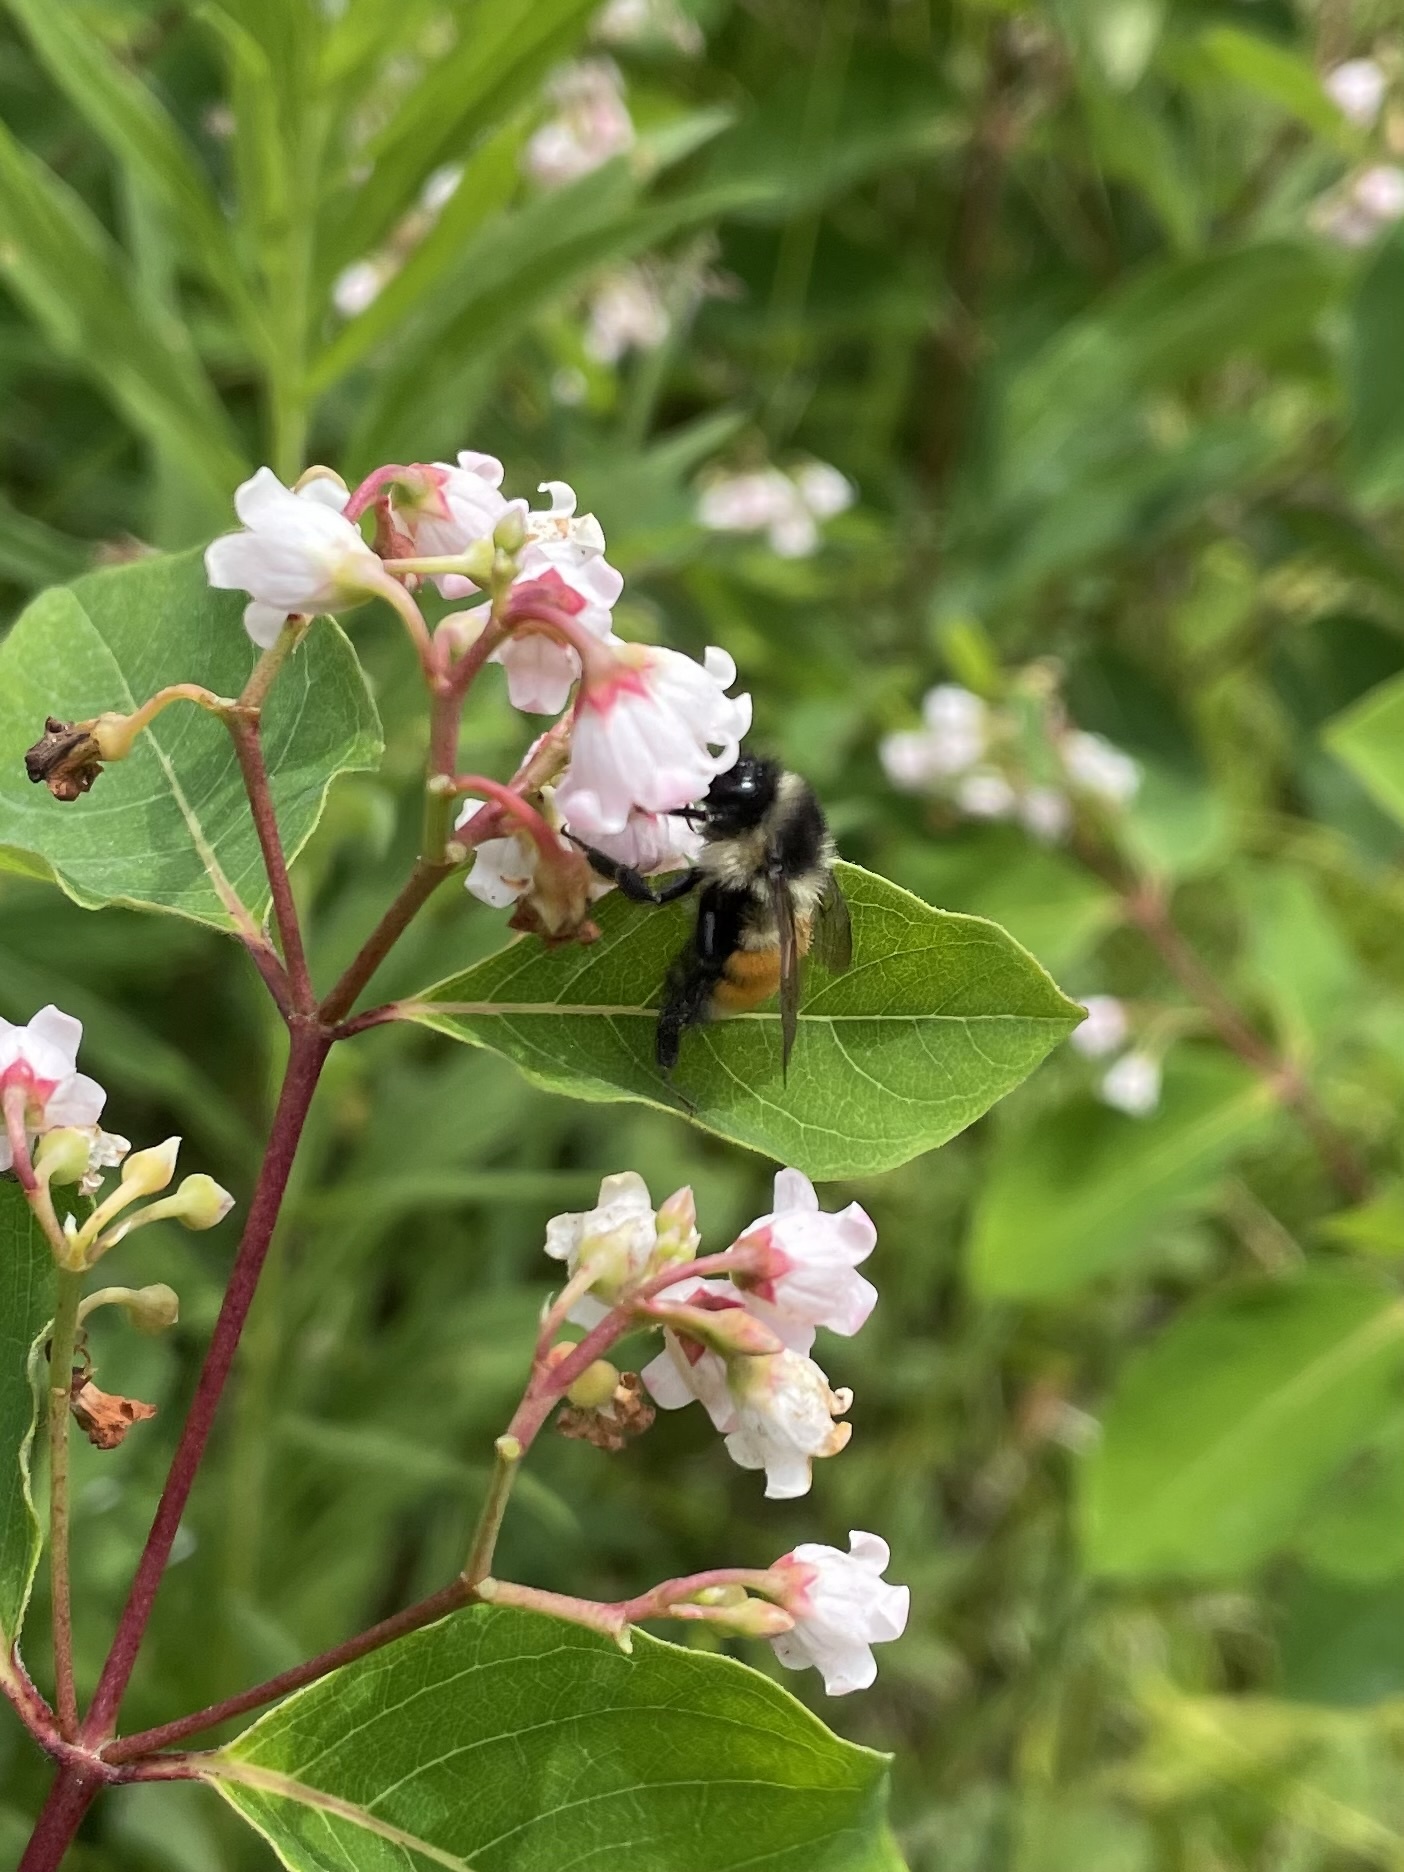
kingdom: Animalia
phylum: Arthropoda
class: Insecta
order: Hymenoptera
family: Apidae
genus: Bombus
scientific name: Bombus ternarius
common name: Tri-colored bumble bee
